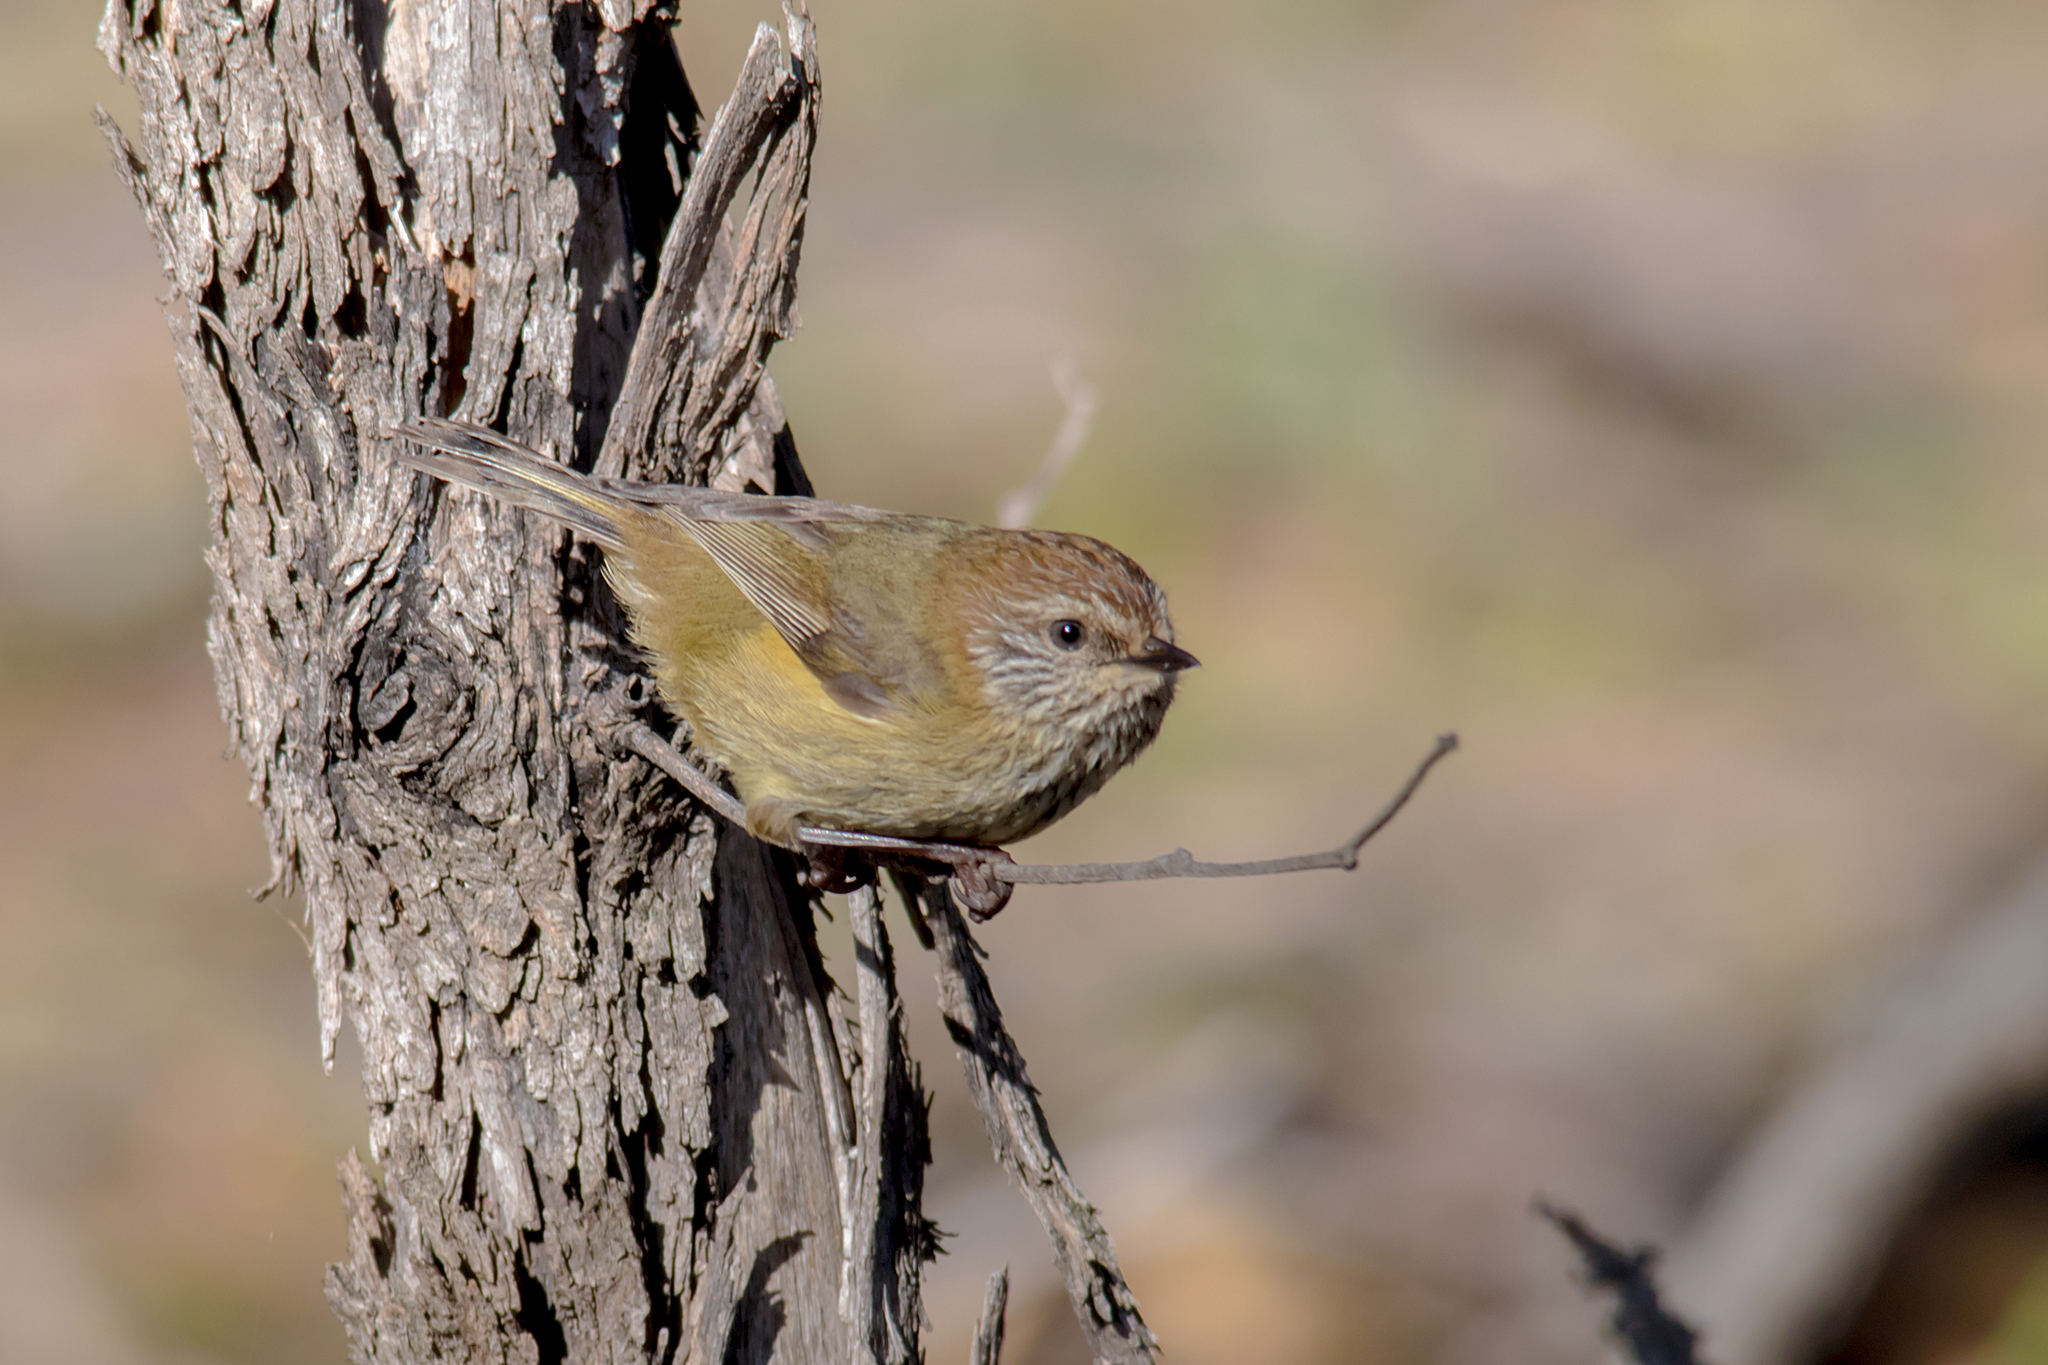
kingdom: Animalia
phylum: Chordata
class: Aves
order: Passeriformes
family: Acanthizidae
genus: Acanthiza
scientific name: Acanthiza lineata
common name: Striated thornbill
